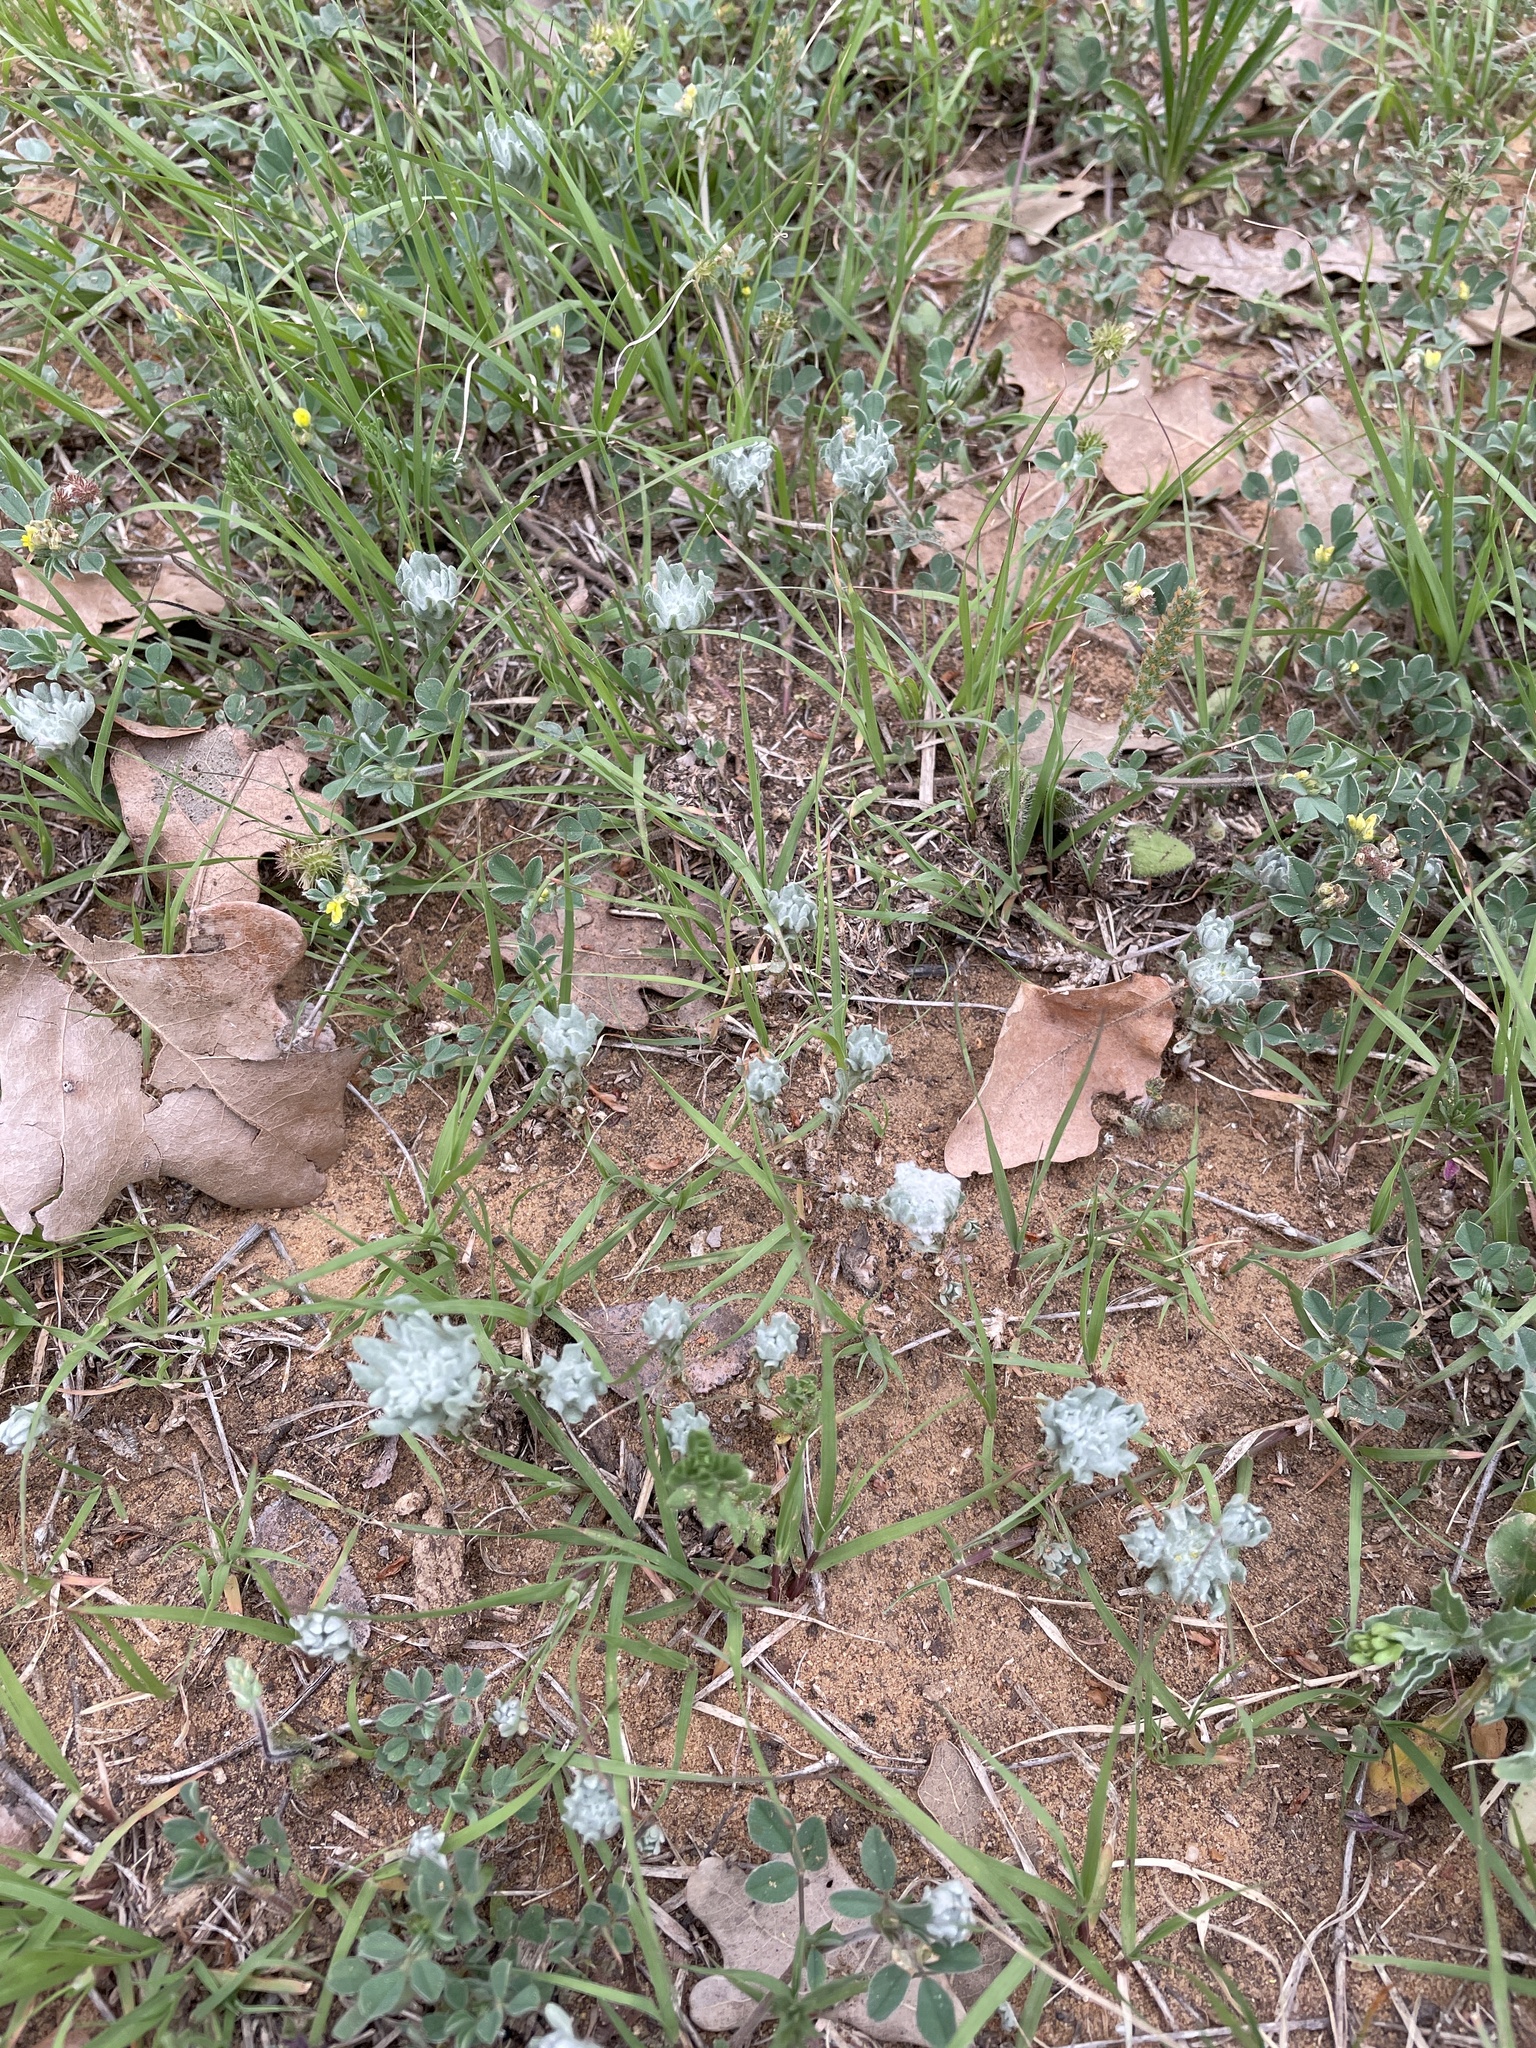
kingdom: Plantae
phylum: Tracheophyta
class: Magnoliopsida
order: Asterales
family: Asteraceae
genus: Diaperia
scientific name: Diaperia prolifera
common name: Big-head rabbit-tobacco
